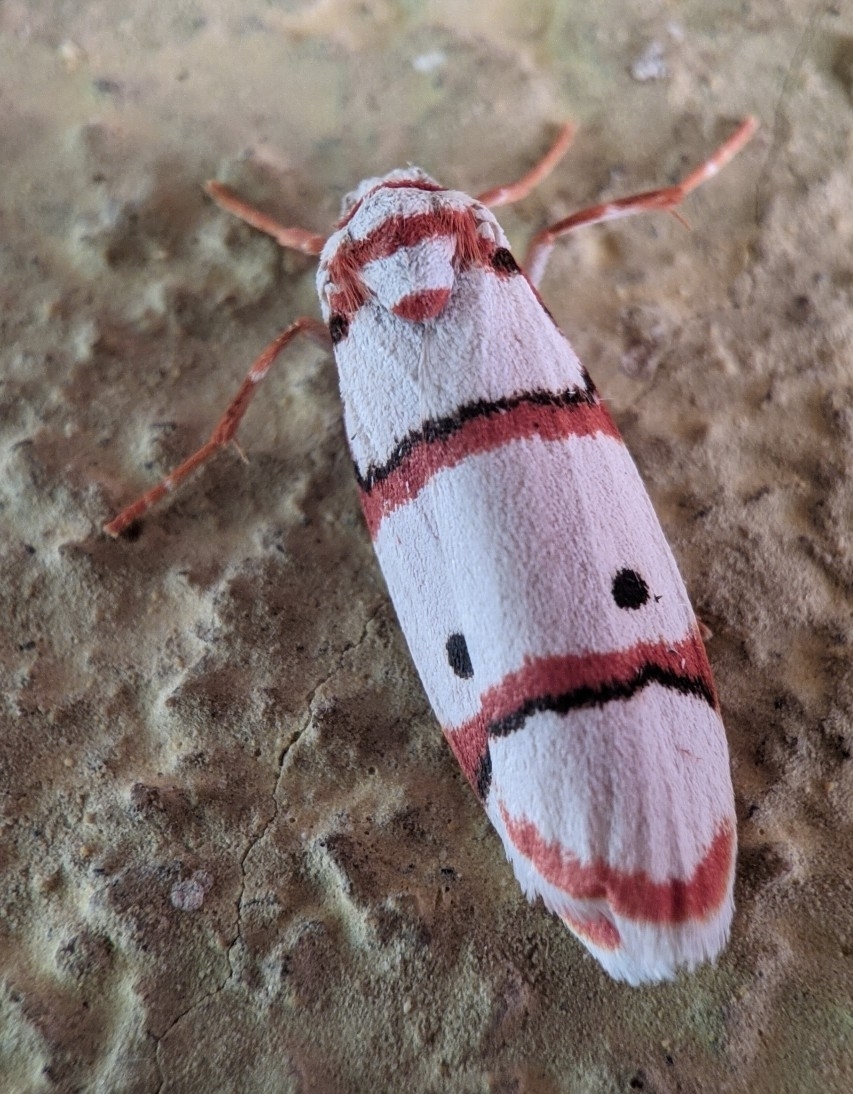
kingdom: Animalia
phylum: Arthropoda
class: Insecta
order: Lepidoptera
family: Erebidae
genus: Cyana
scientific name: Cyana peregrina
